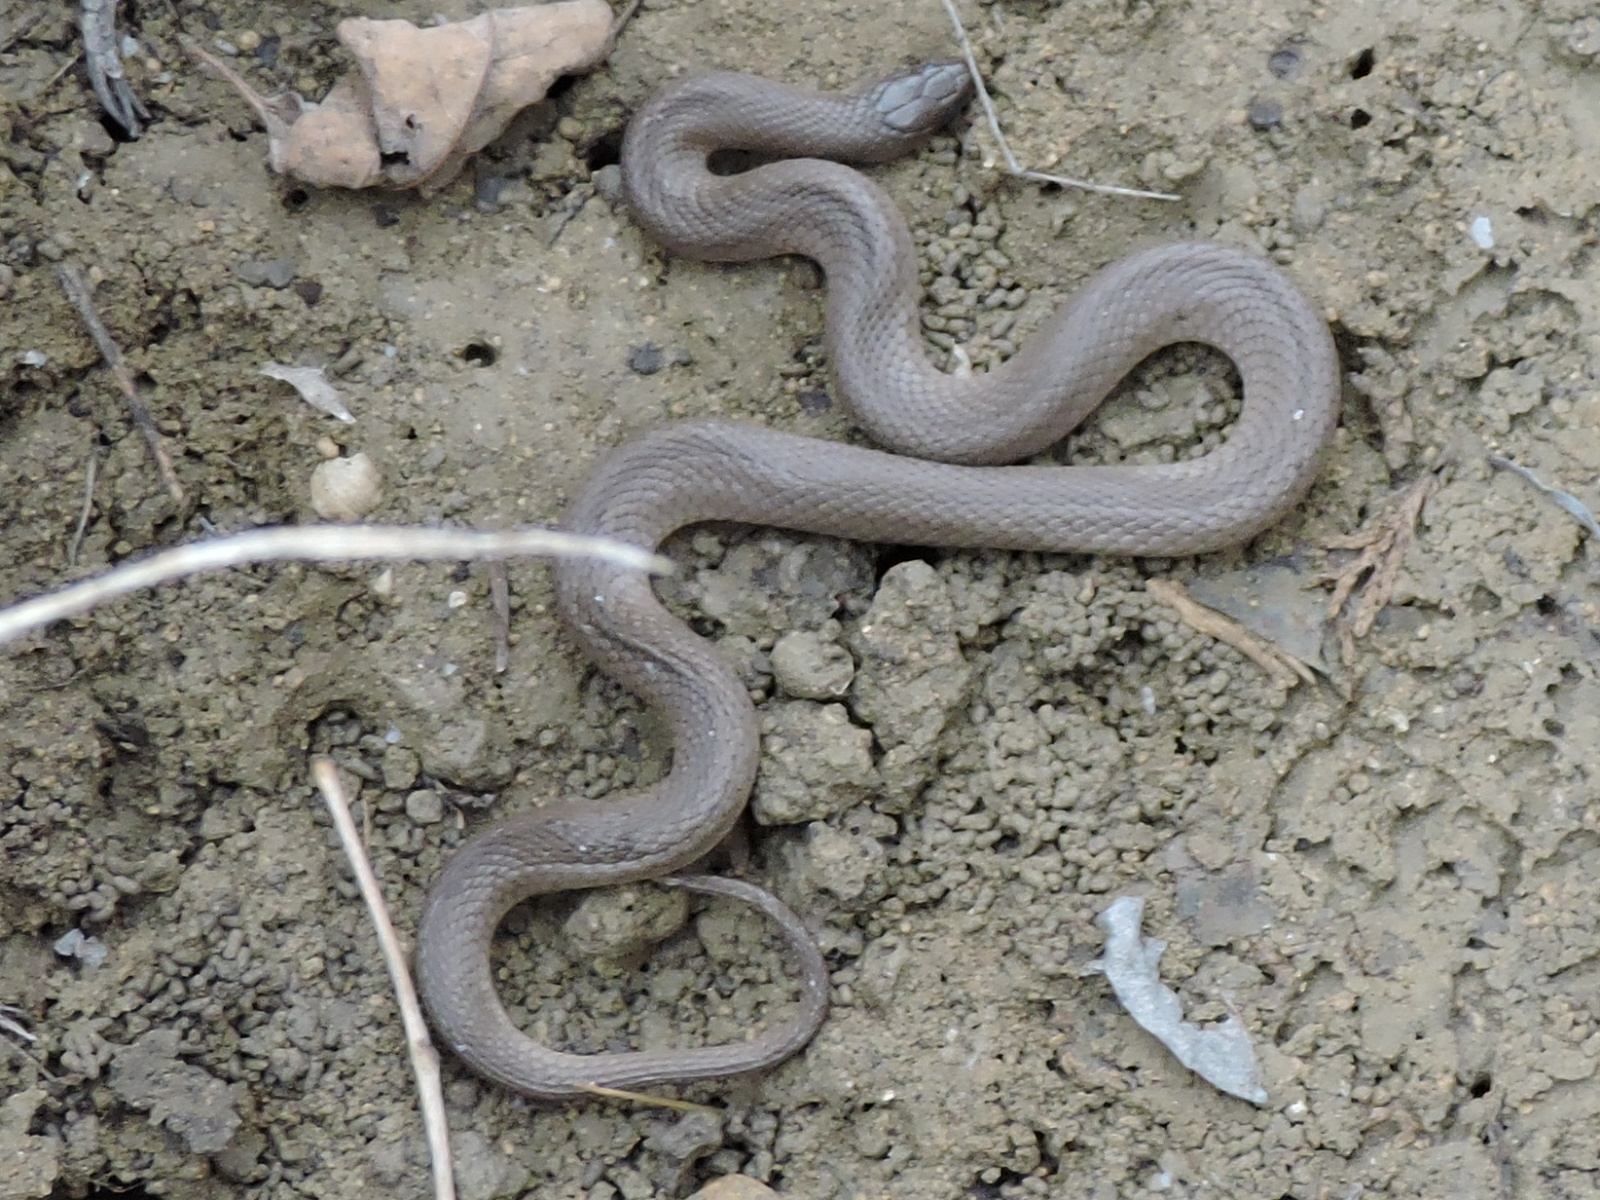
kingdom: Animalia
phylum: Chordata
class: Squamata
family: Colubridae
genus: Haldea
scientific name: Haldea striatula
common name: Rough earth snake
